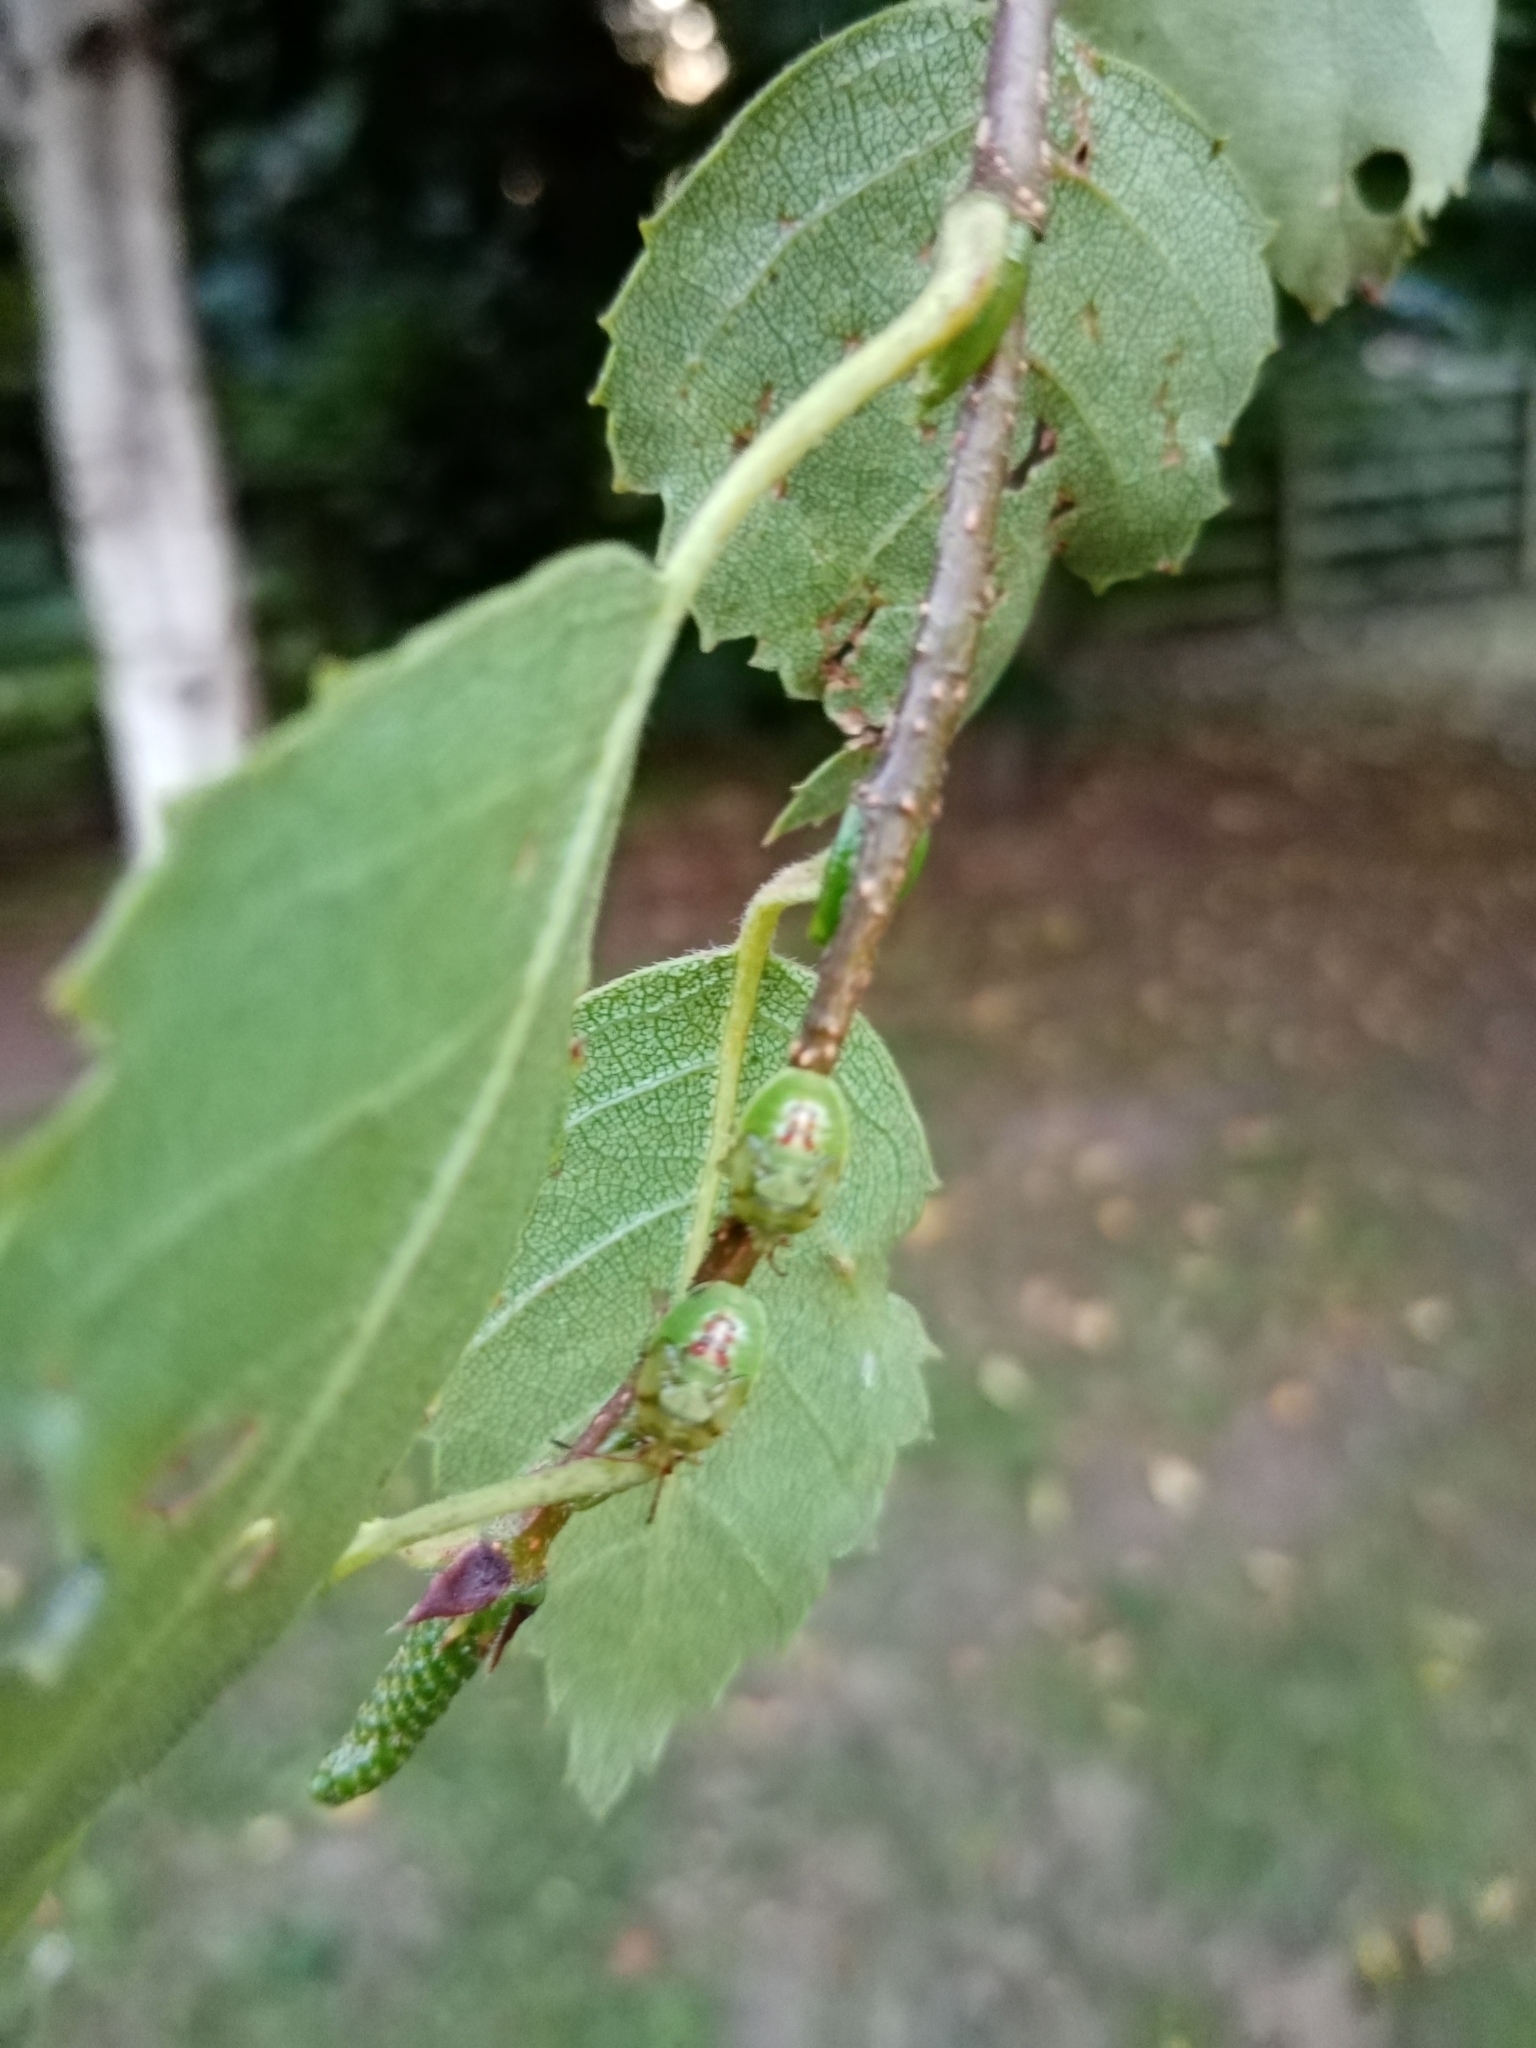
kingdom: Animalia
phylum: Arthropoda
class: Insecta
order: Hemiptera
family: Acanthosomatidae
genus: Elasmostethus
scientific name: Elasmostethus interstinctus
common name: Birch shieldbug
